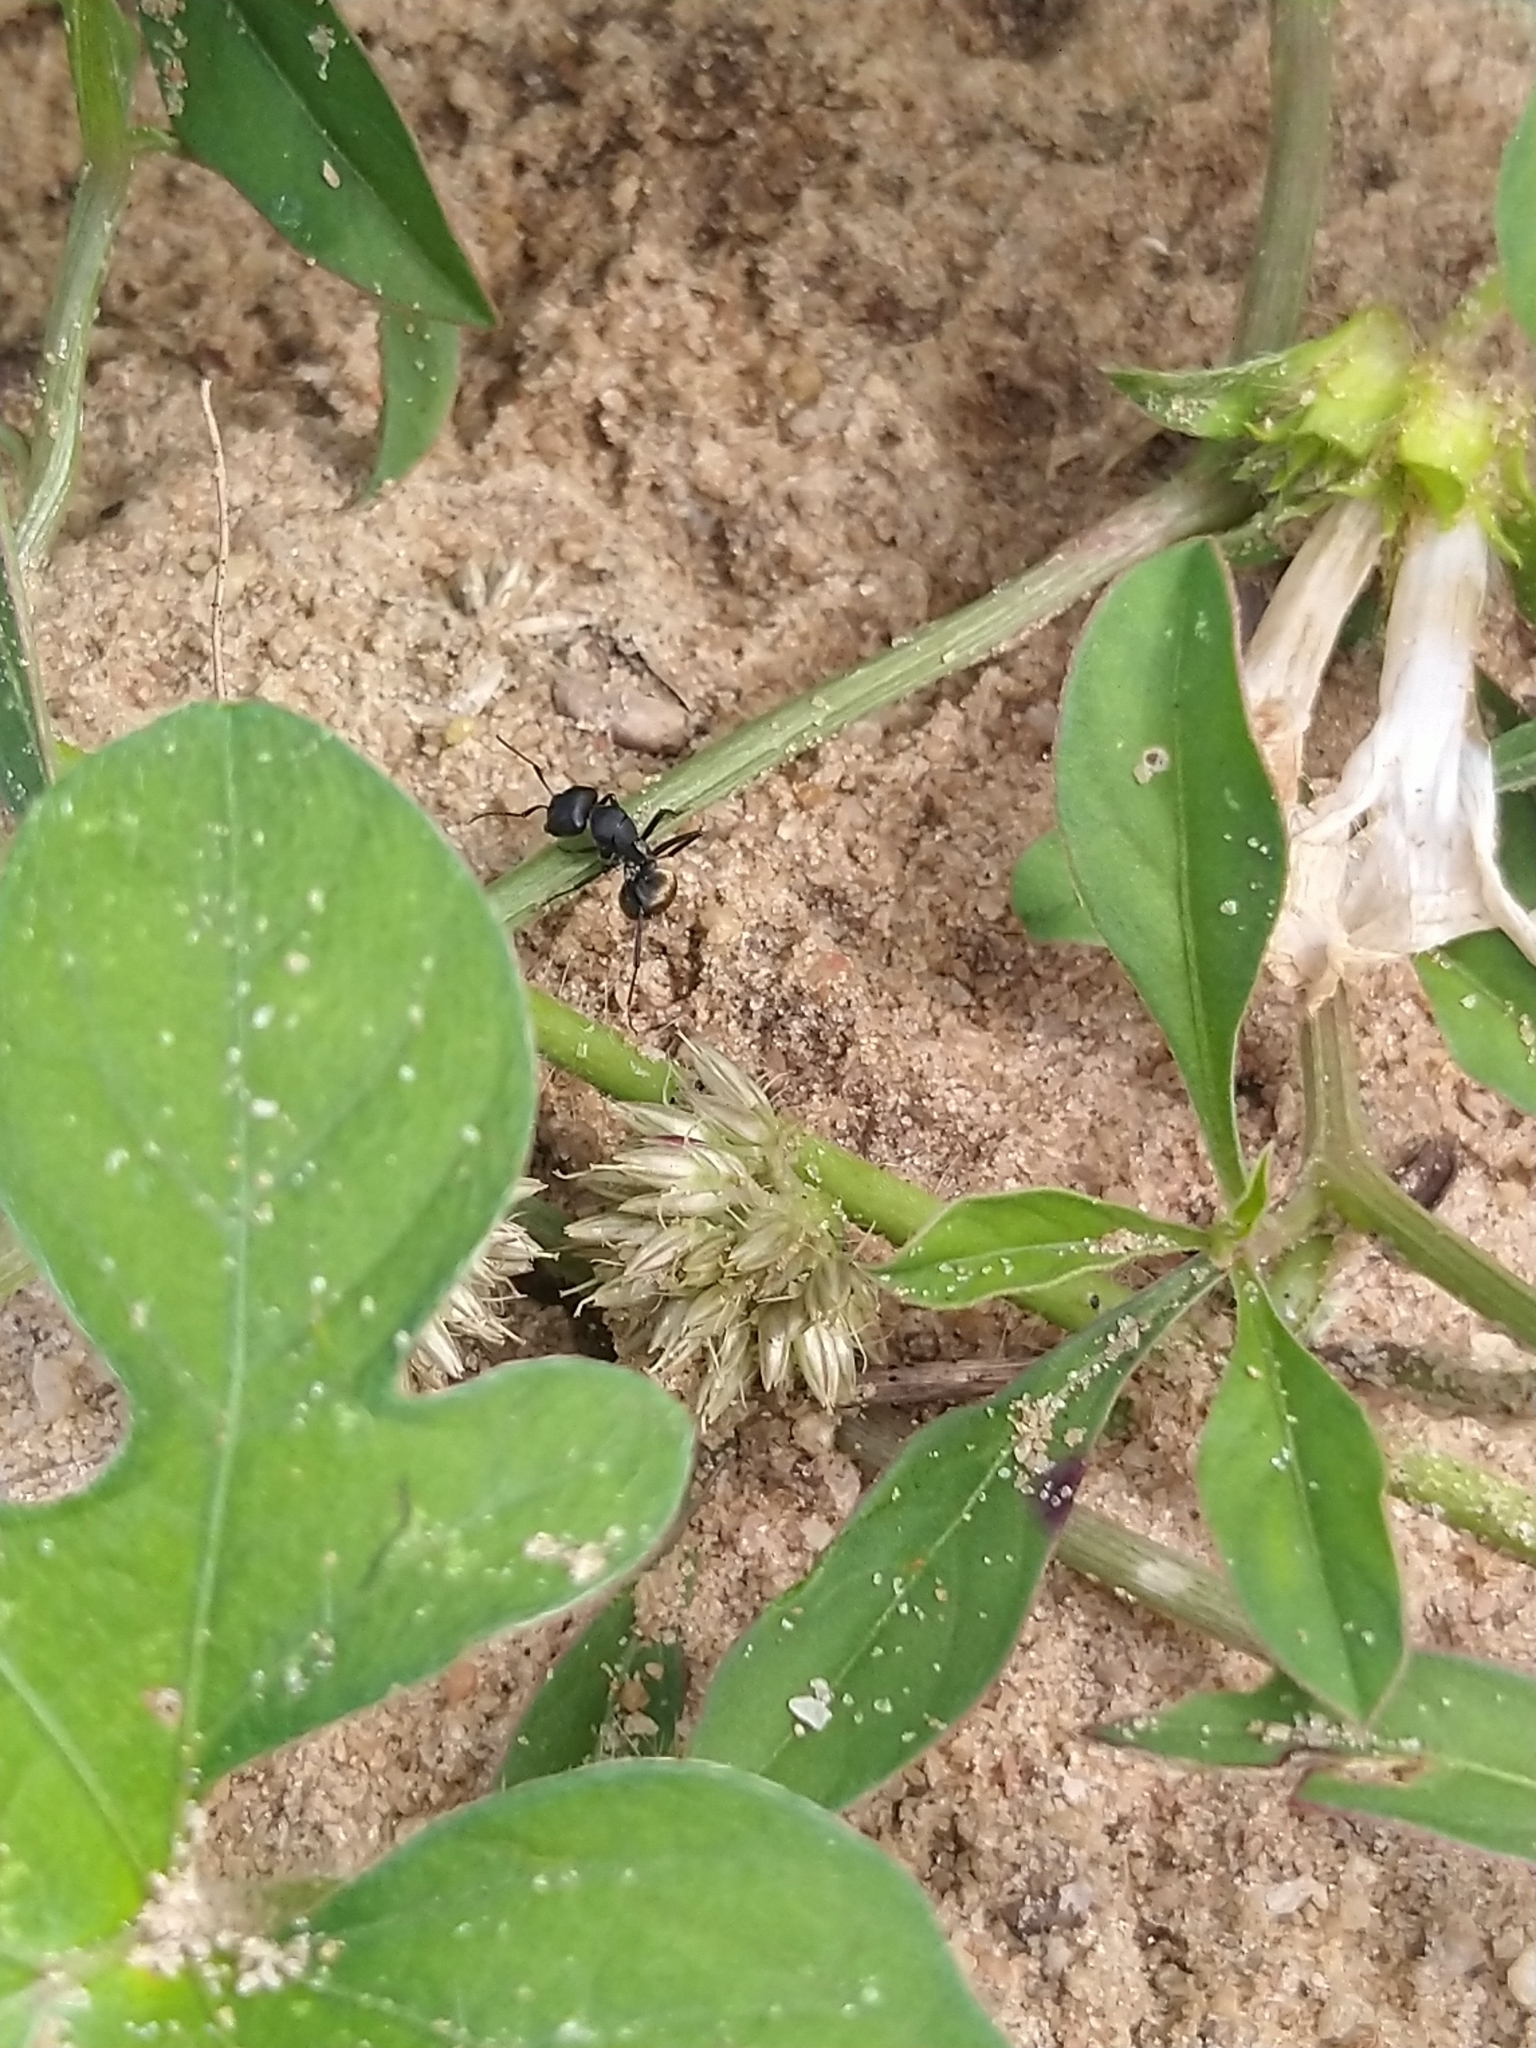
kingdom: Animalia
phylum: Arthropoda
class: Insecta
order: Hymenoptera
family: Formicidae
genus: Camponotus
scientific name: Camponotus sericeus
